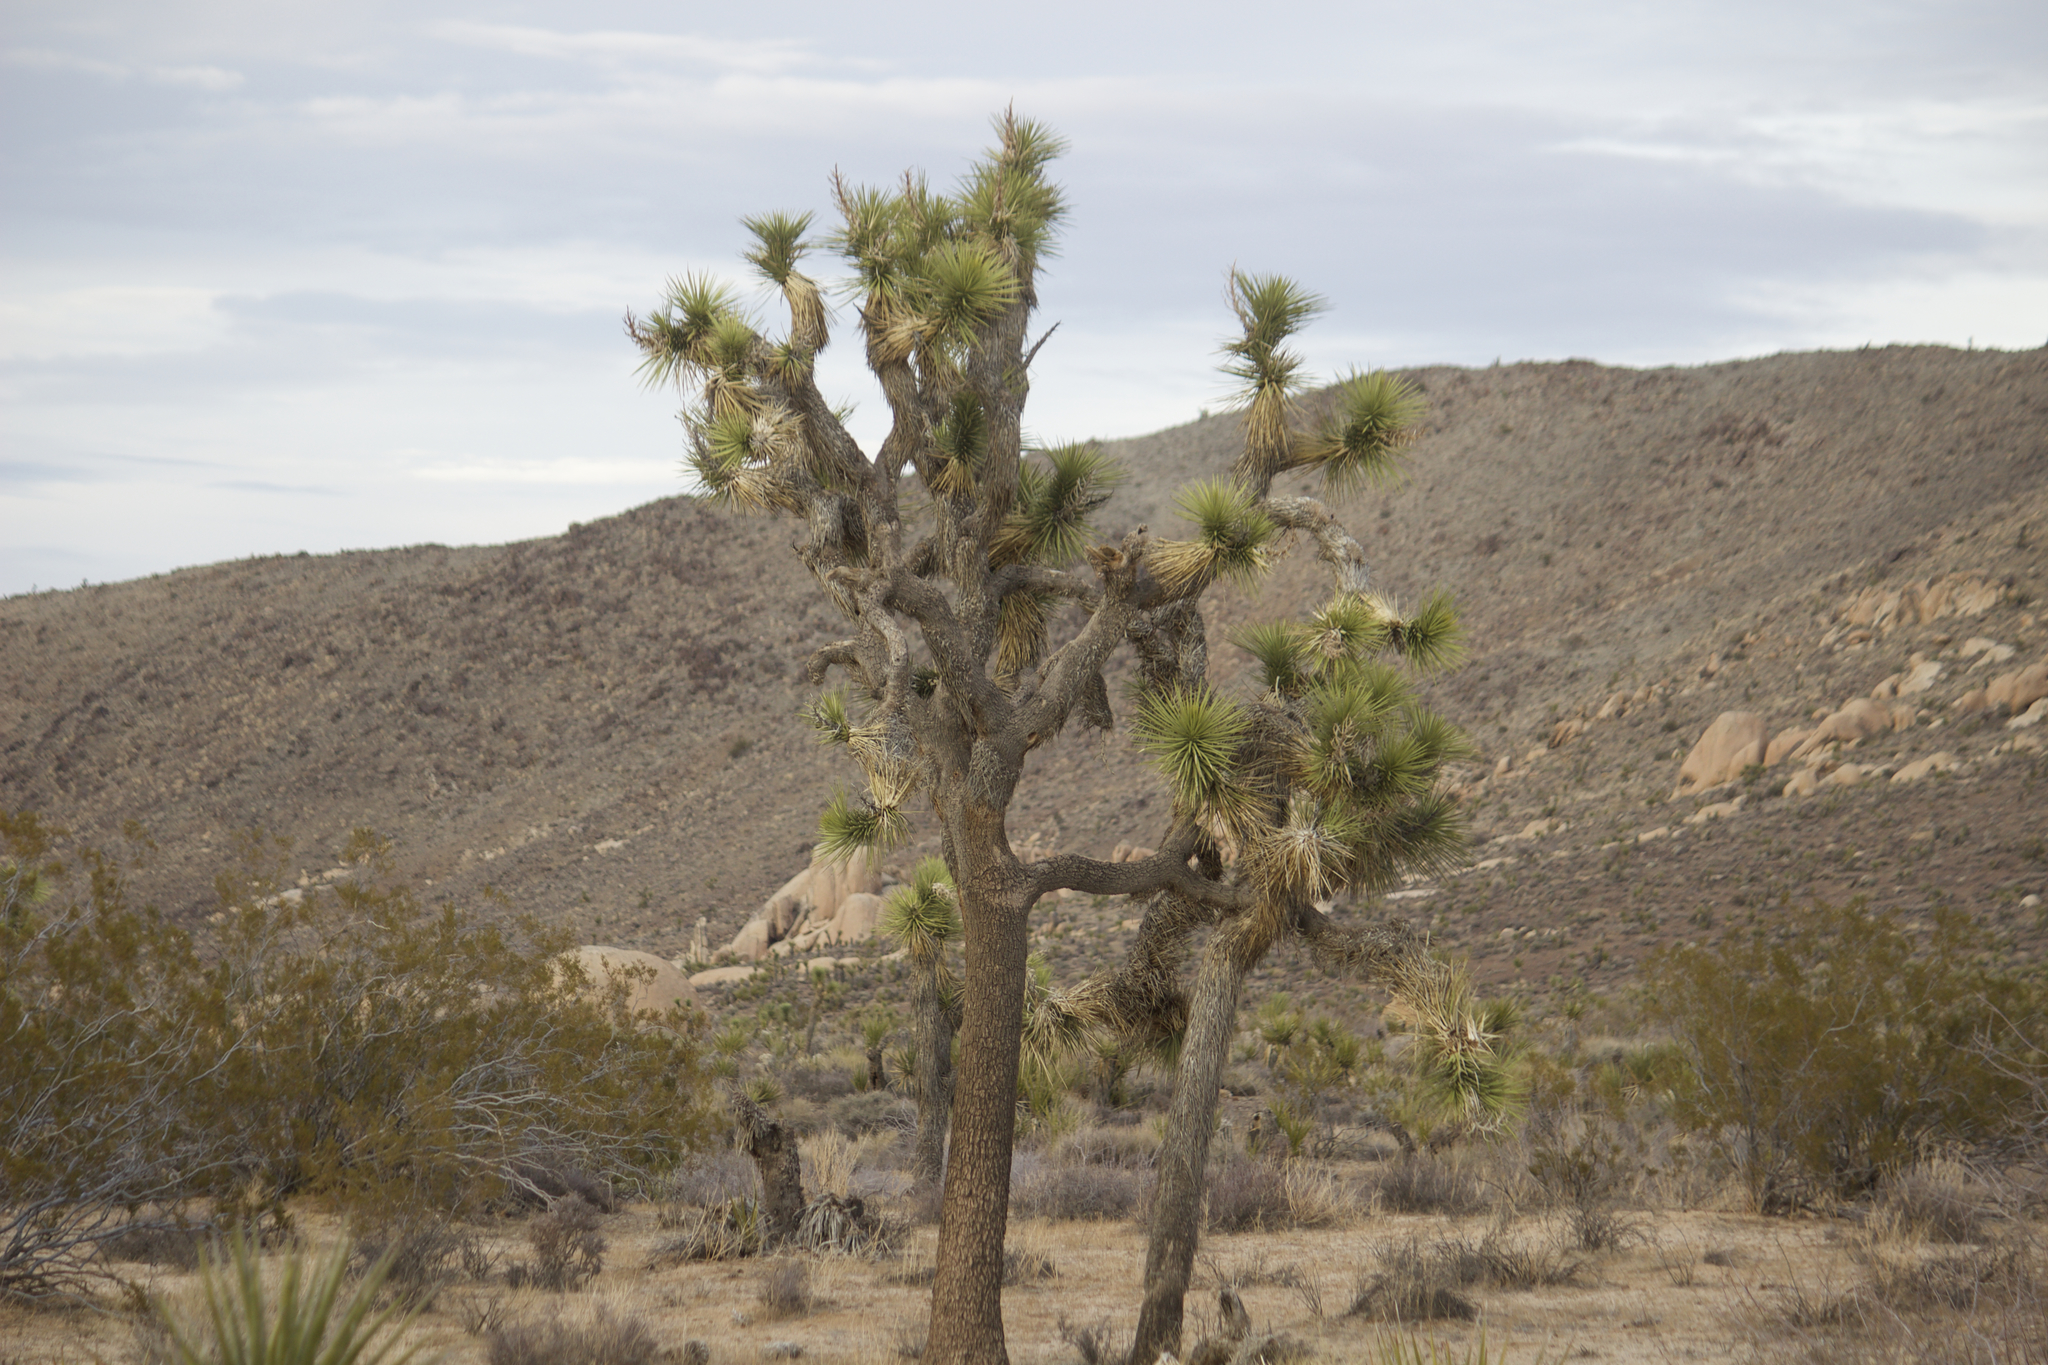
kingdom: Plantae
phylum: Tracheophyta
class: Liliopsida
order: Asparagales
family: Asparagaceae
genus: Yucca
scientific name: Yucca brevifolia
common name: Joshua tree
